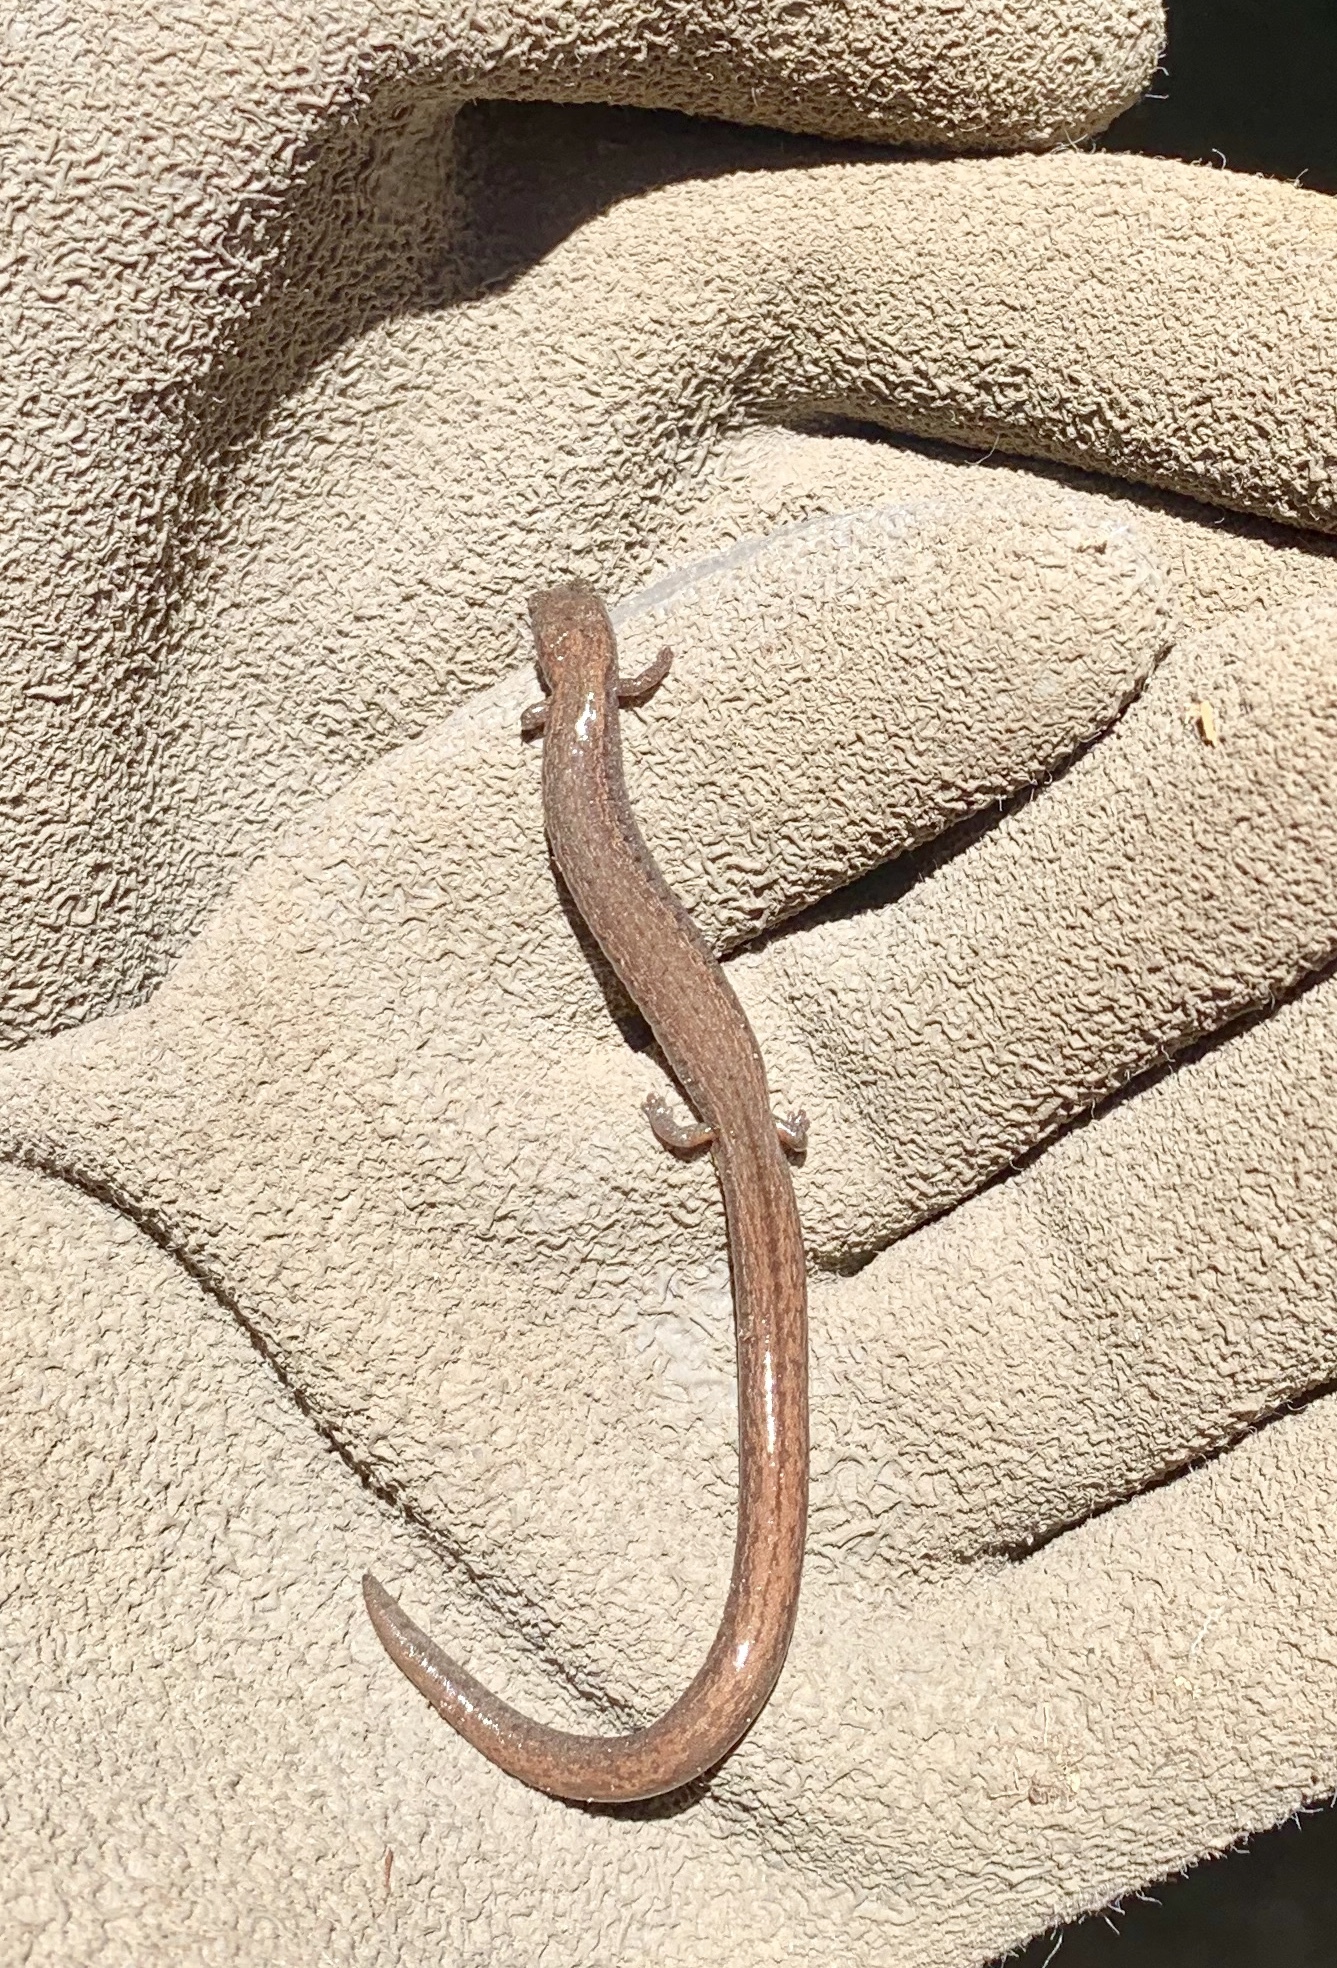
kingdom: Animalia
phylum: Chordata
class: Amphibia
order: Caudata
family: Plethodontidae
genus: Batrachoseps
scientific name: Batrachoseps attenuatus
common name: California slender salamander
